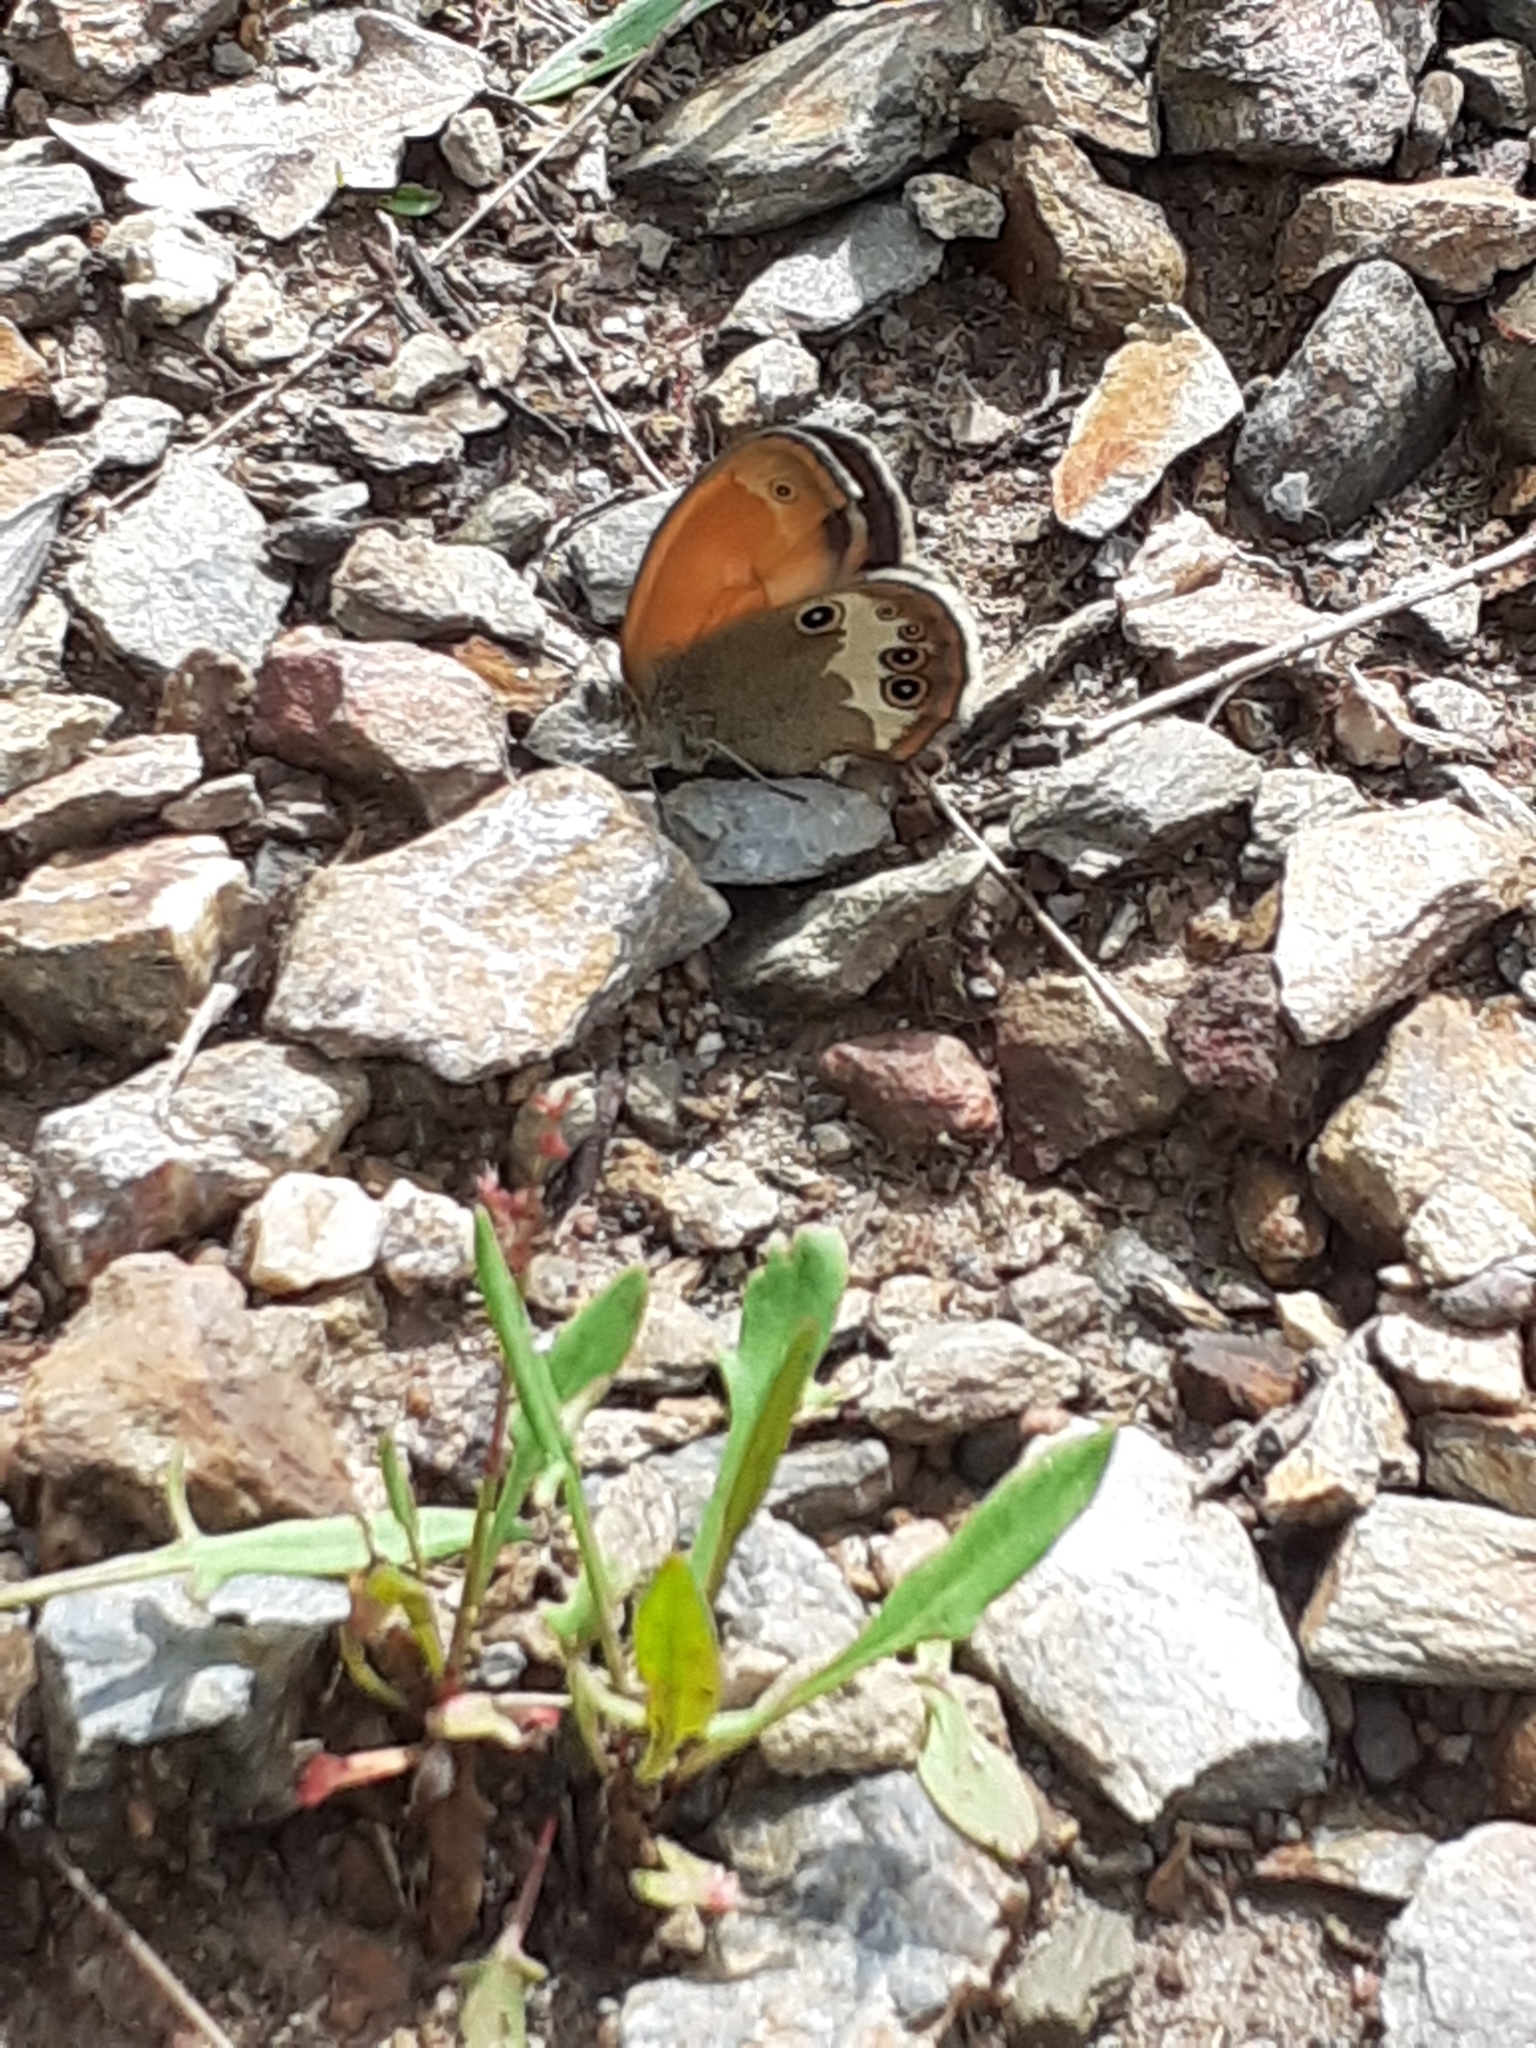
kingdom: Animalia
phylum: Arthropoda
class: Insecta
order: Lepidoptera
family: Nymphalidae
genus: Coenonympha
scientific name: Coenonympha arcania
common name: Pearly heath
